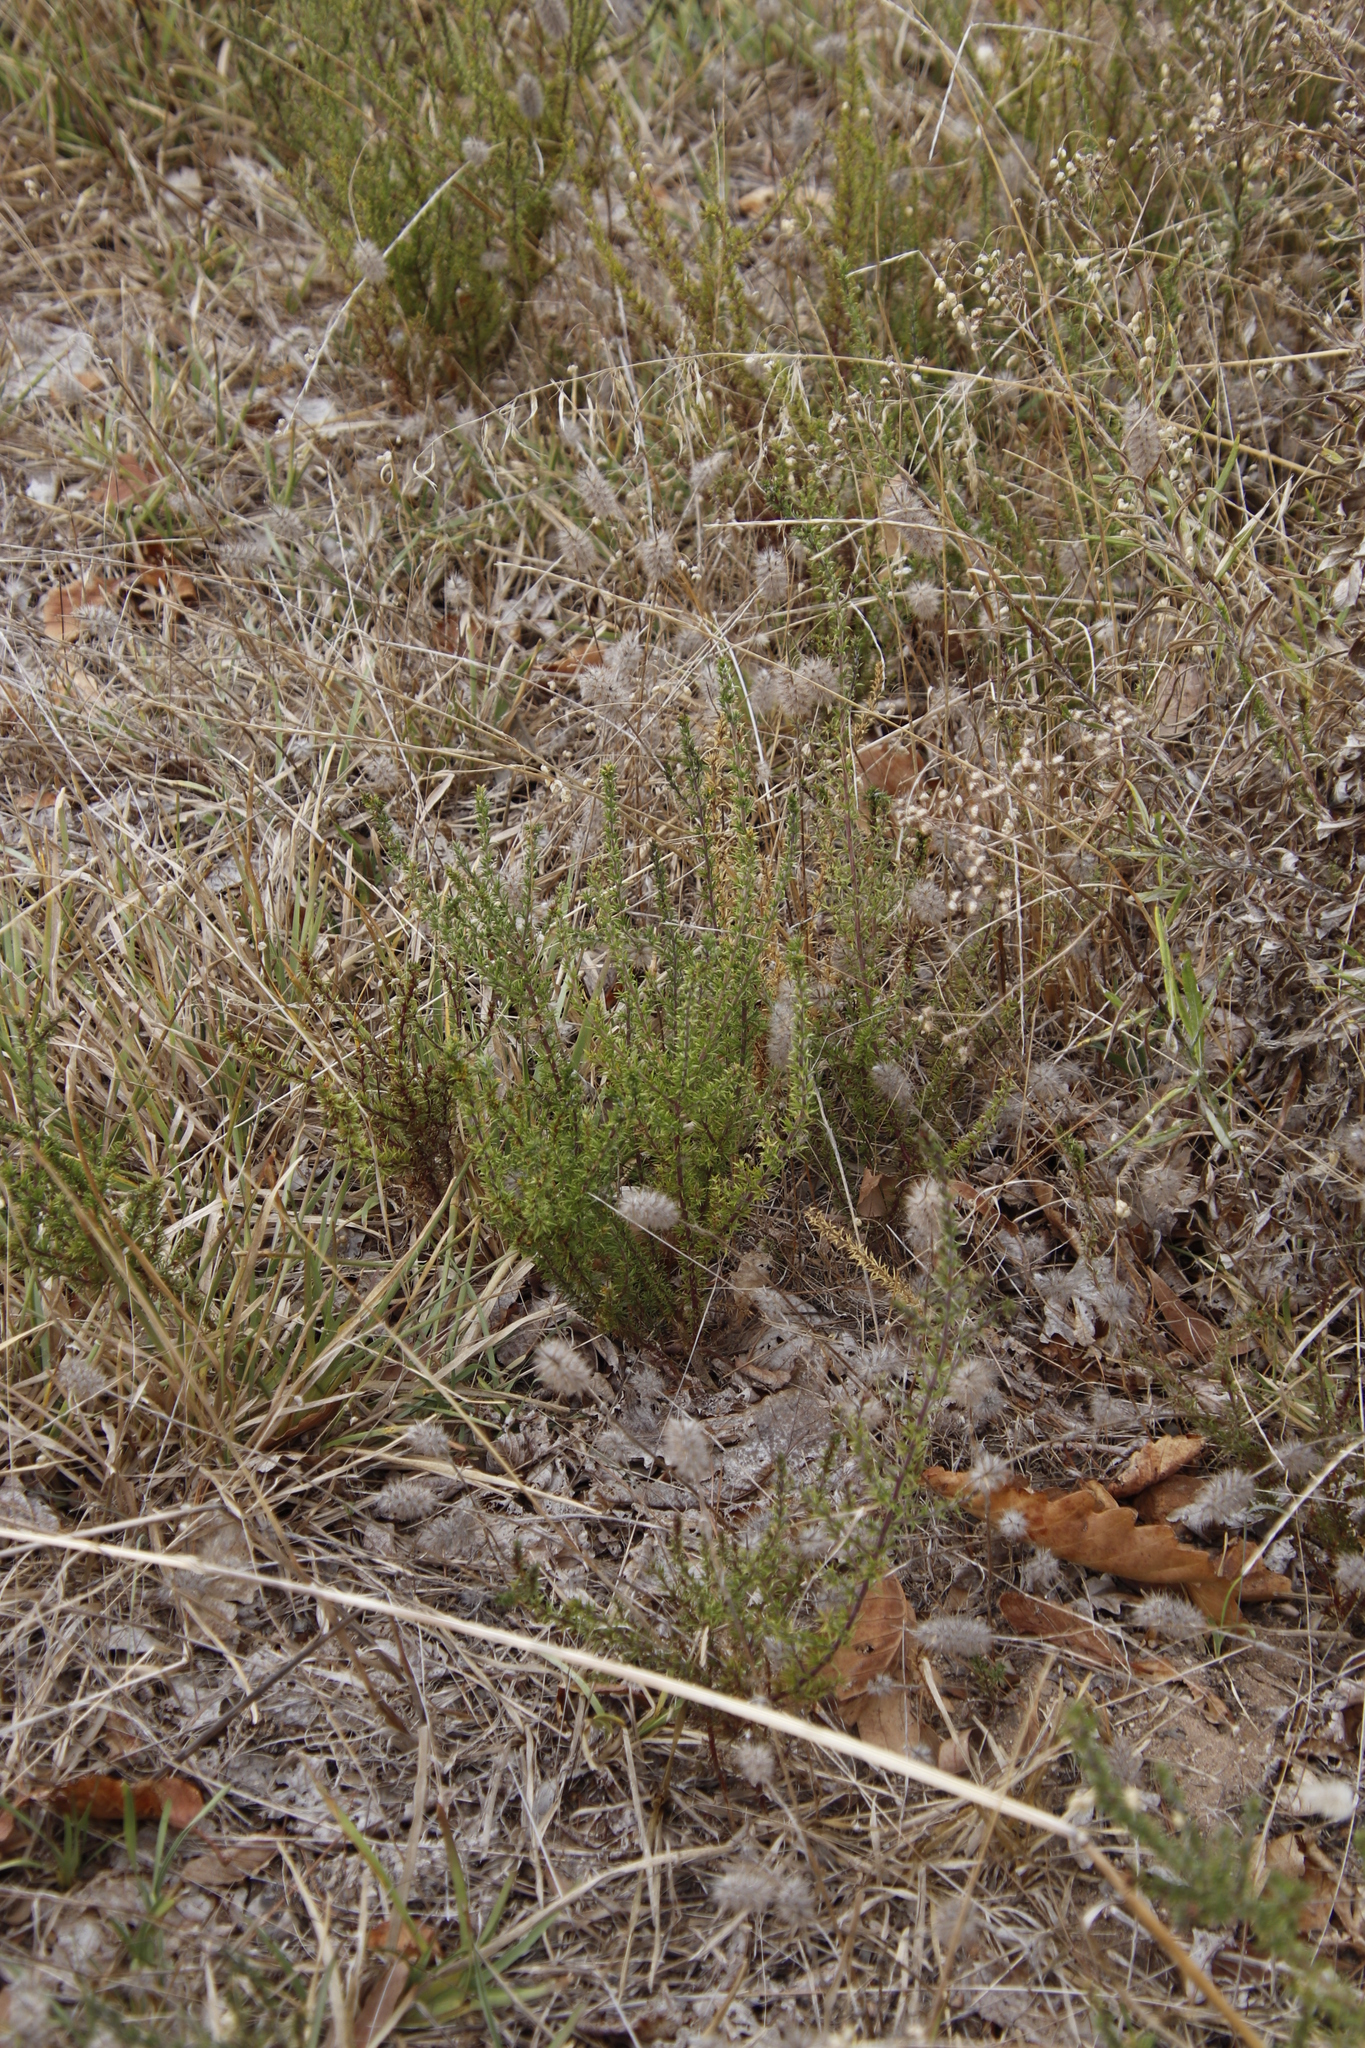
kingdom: Plantae
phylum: Tracheophyta
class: Magnoliopsida
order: Fabales
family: Polygalaceae
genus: Muraltia
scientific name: Muraltia heisteria
